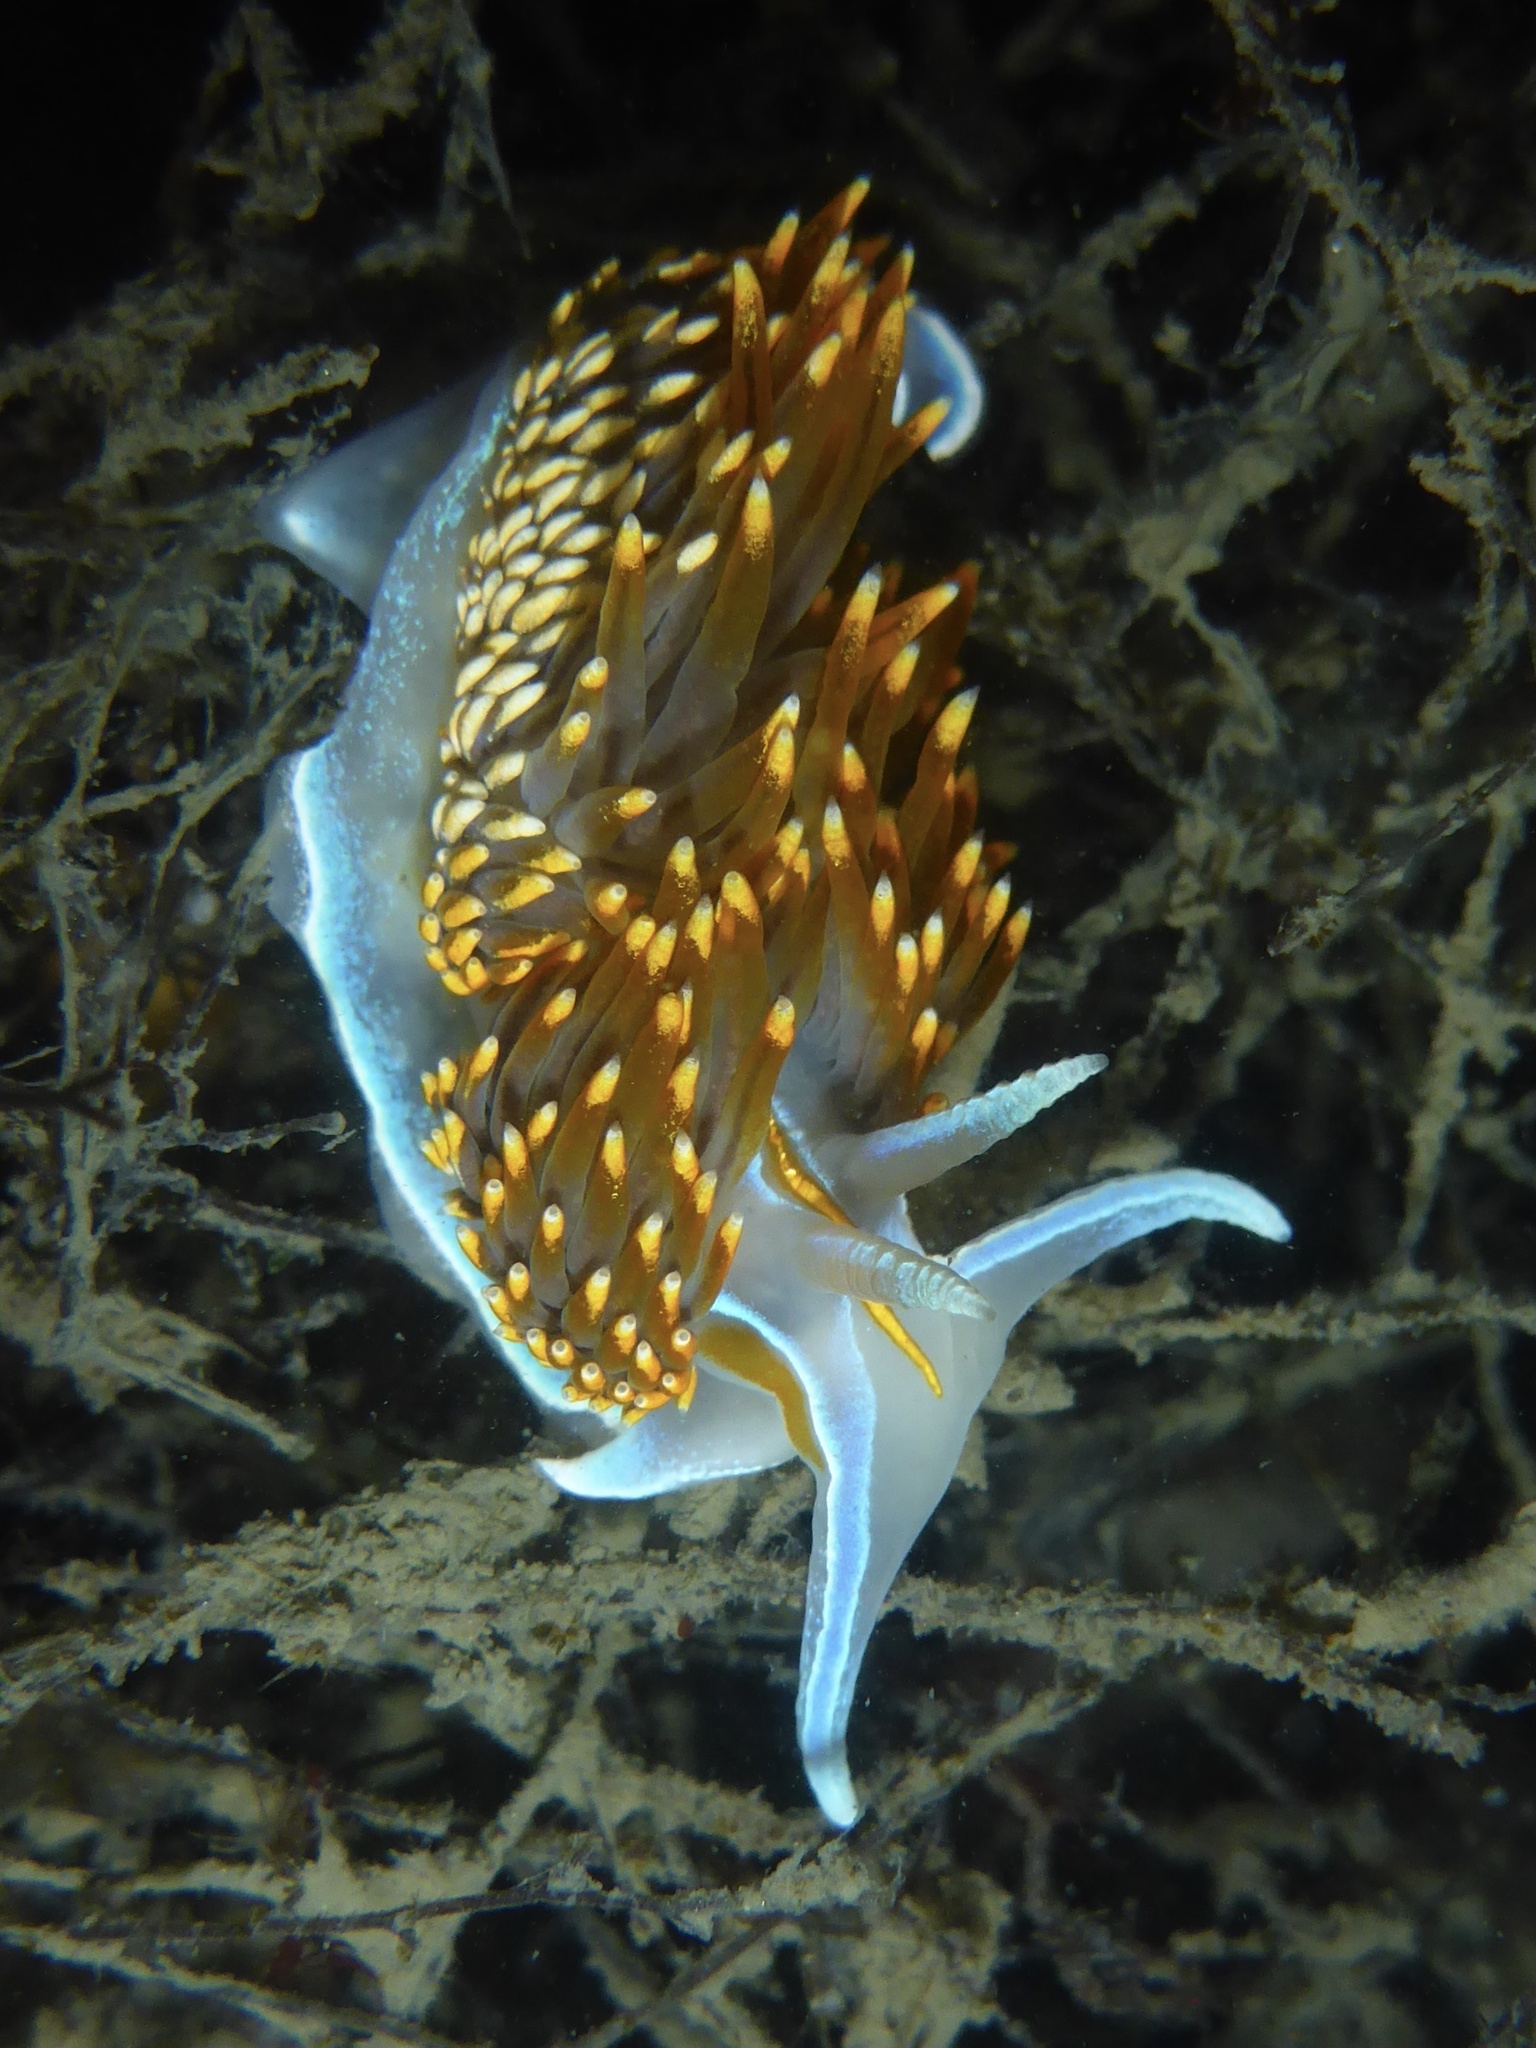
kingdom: Animalia
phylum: Mollusca
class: Gastropoda
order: Nudibranchia
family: Myrrhinidae
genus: Hermissenda
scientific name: Hermissenda opalescens
